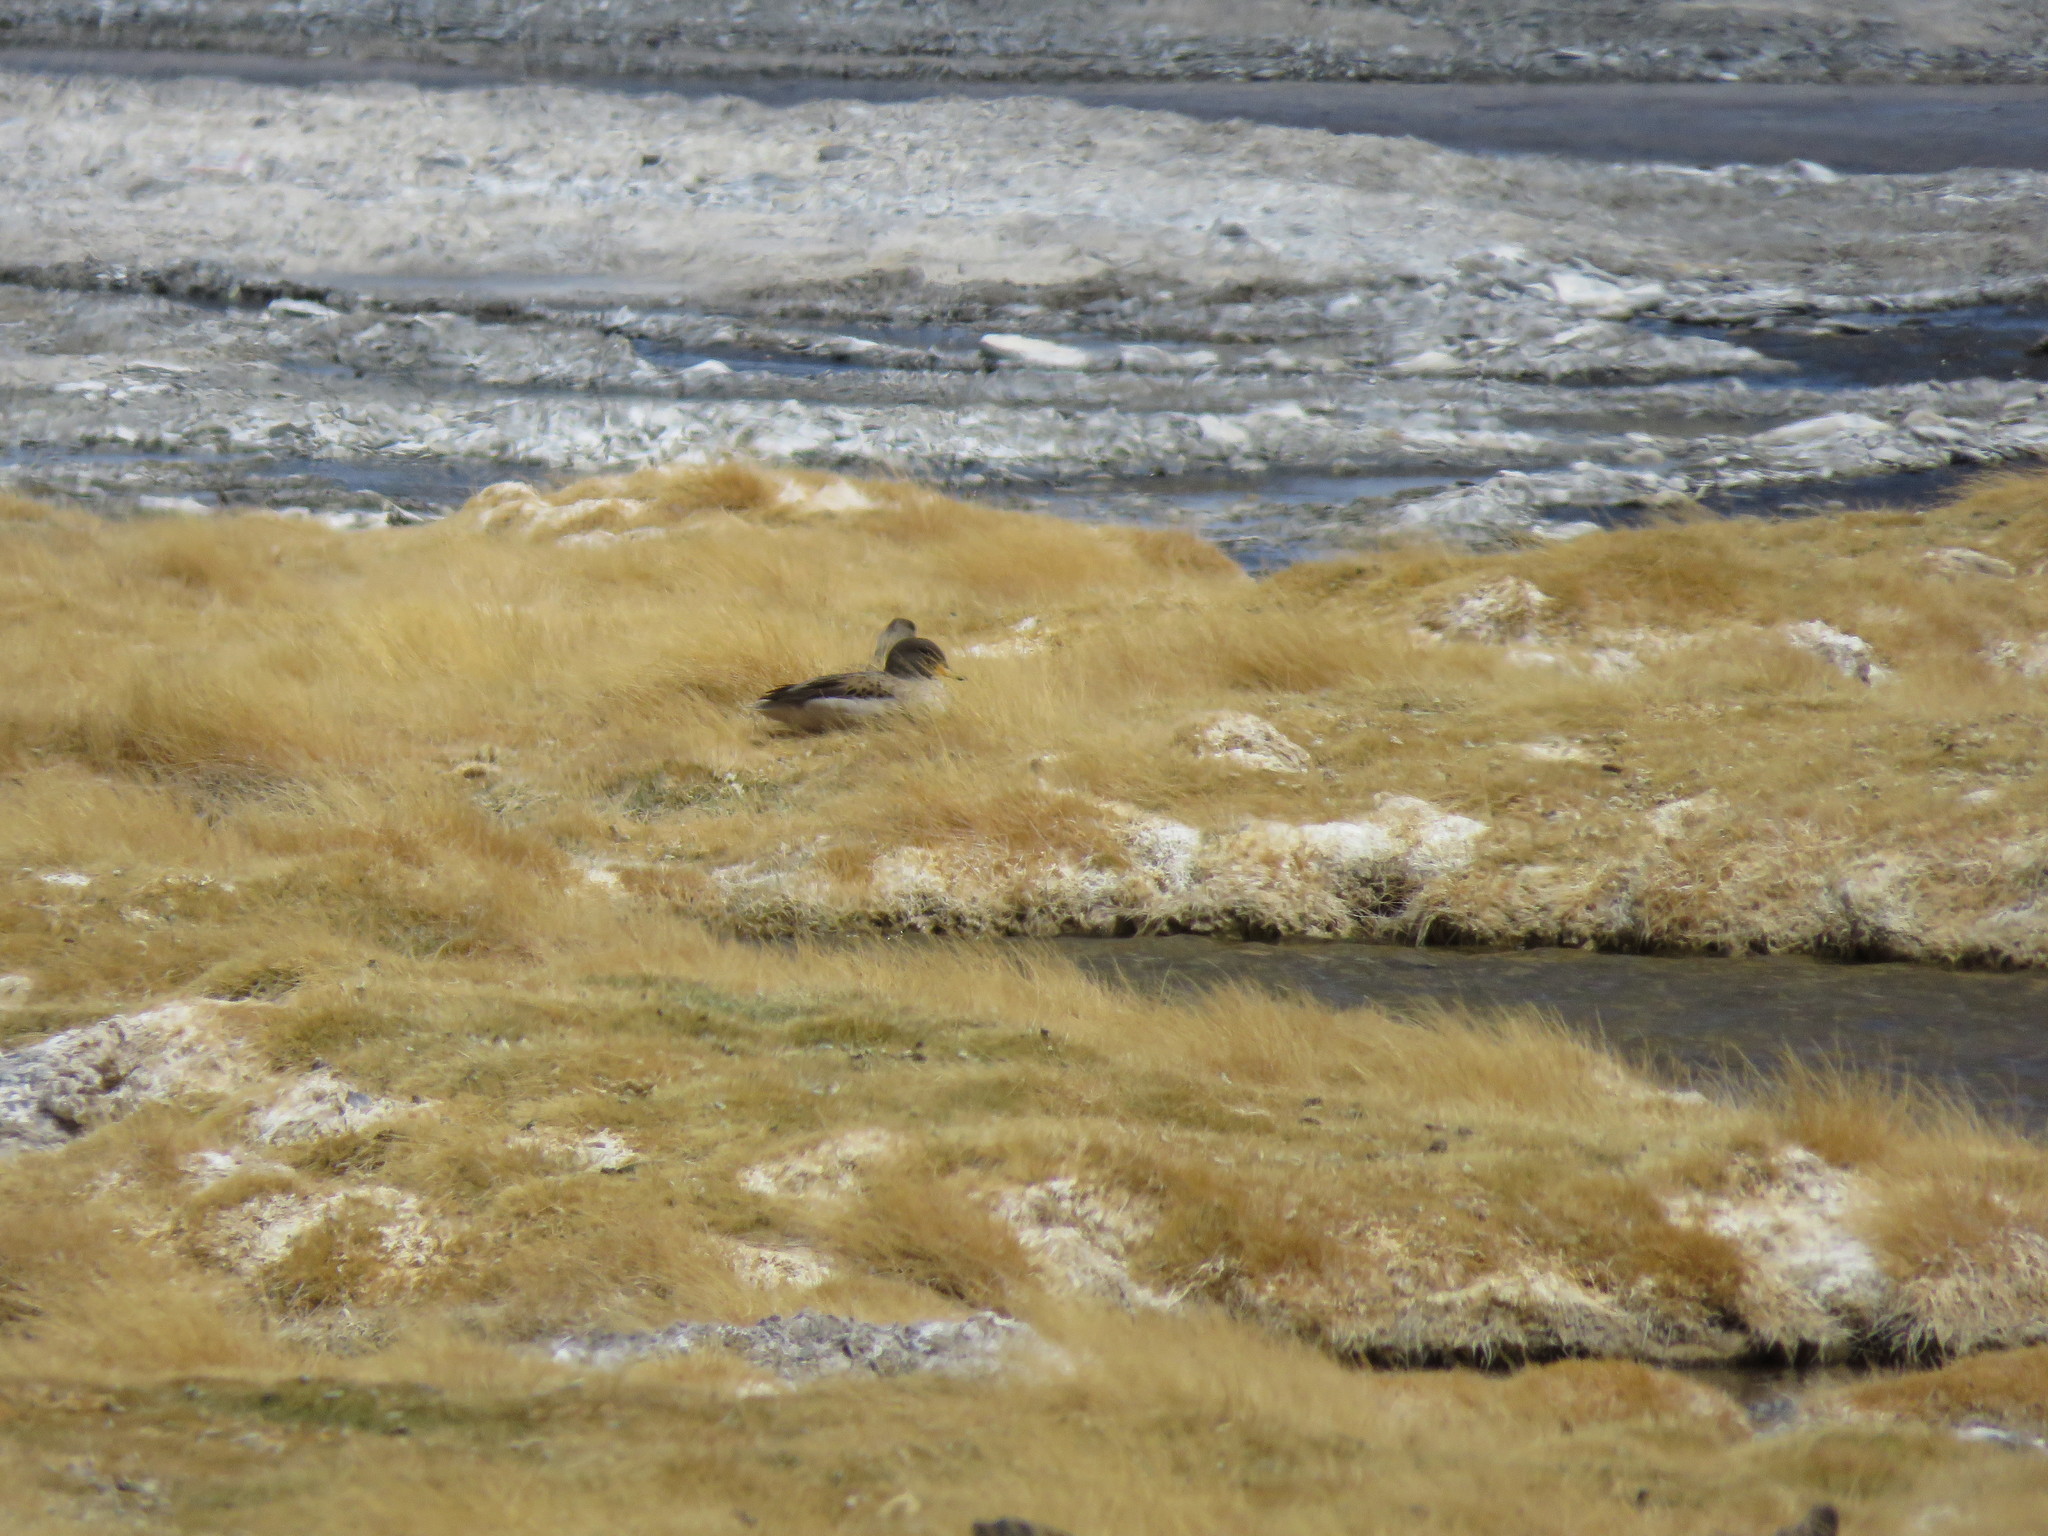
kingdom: Animalia
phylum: Chordata
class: Aves
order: Anseriformes
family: Anatidae
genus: Anas
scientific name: Anas flavirostris
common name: Yellow-billed teal
